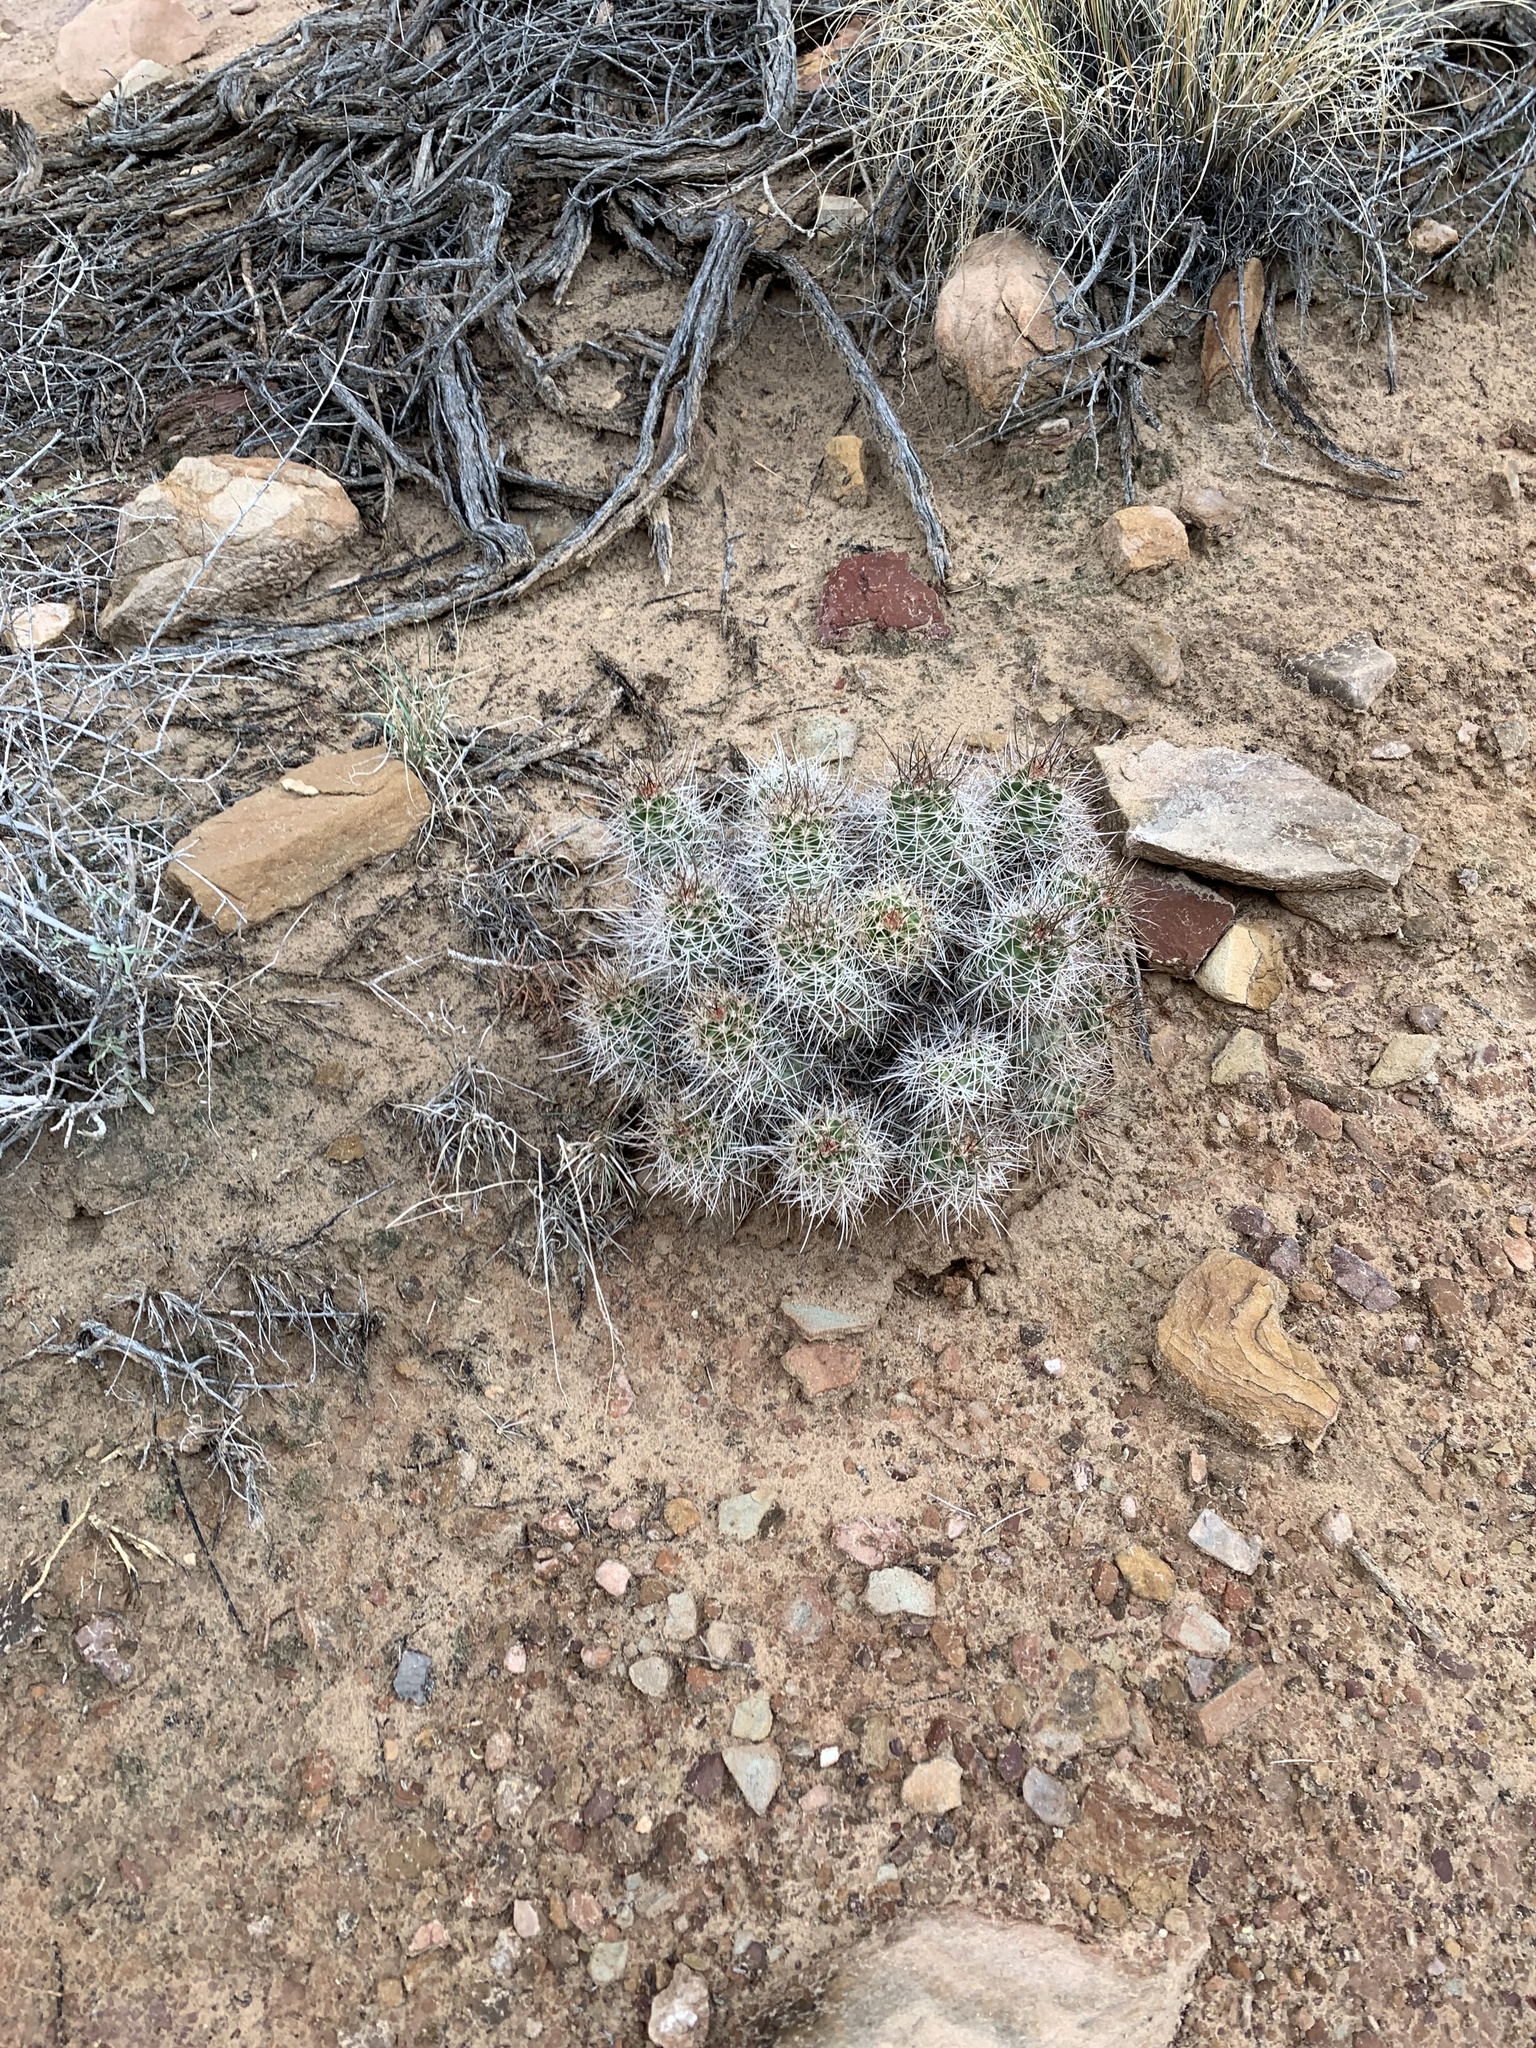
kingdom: Plantae
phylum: Tracheophyta
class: Magnoliopsida
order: Caryophyllales
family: Cactaceae
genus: Echinocereus
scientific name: Echinocereus triglochidiatus
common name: Claretcup hedgehog
